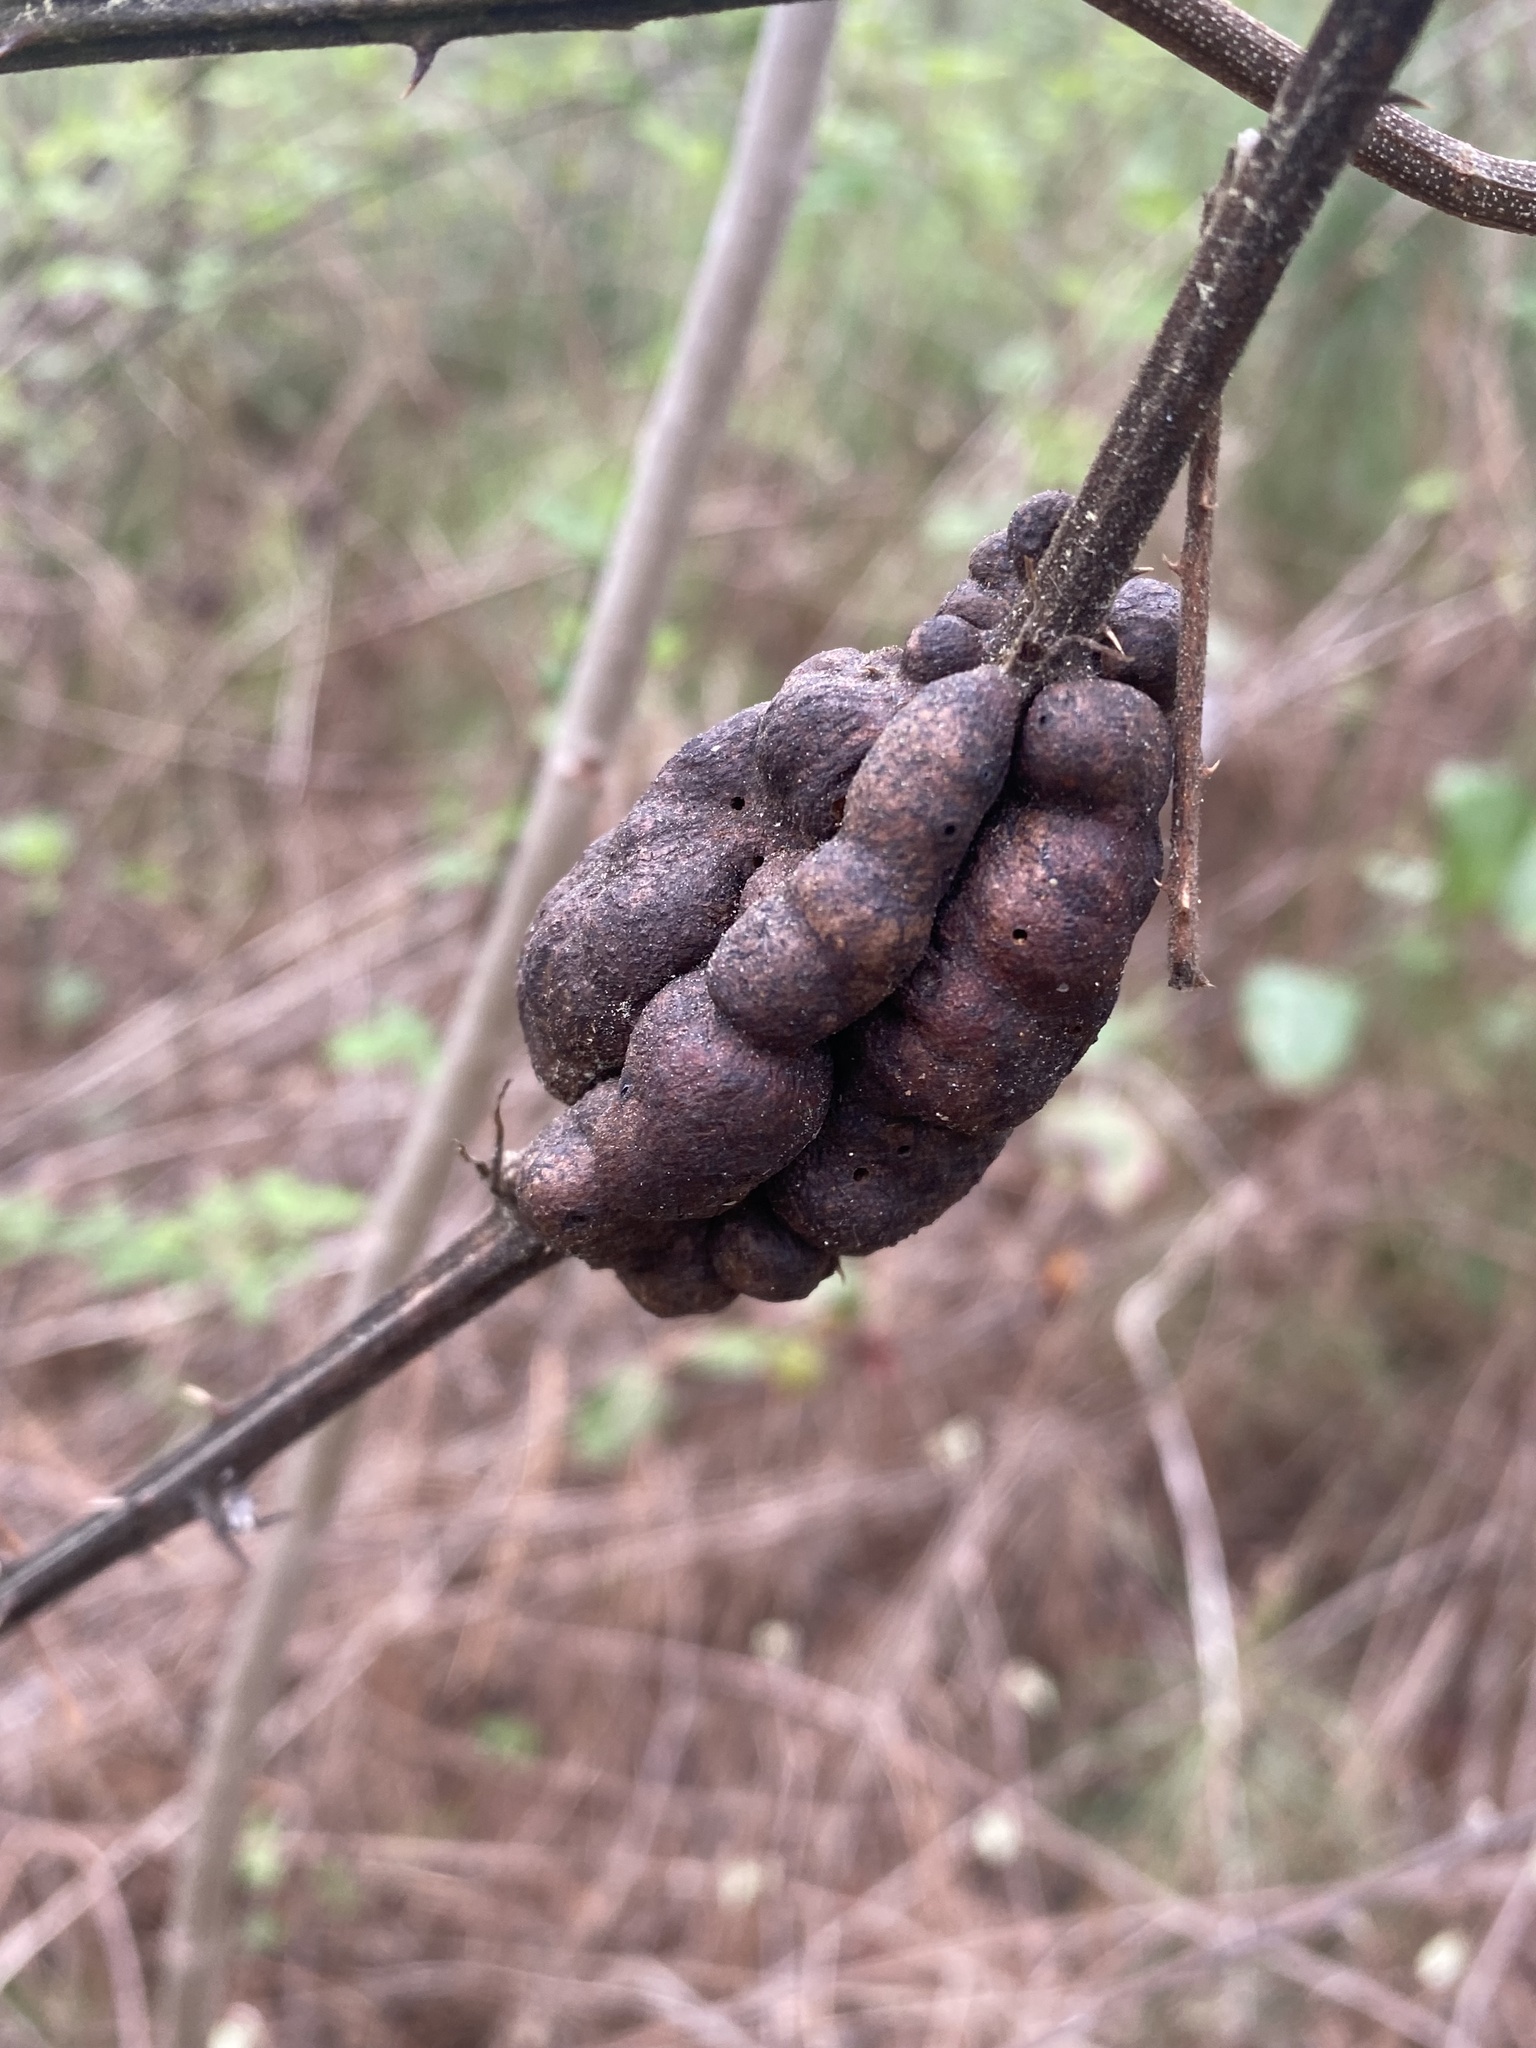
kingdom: Animalia
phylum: Arthropoda
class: Insecta
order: Hymenoptera
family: Cynipidae
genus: Diastrophus
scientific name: Diastrophus
